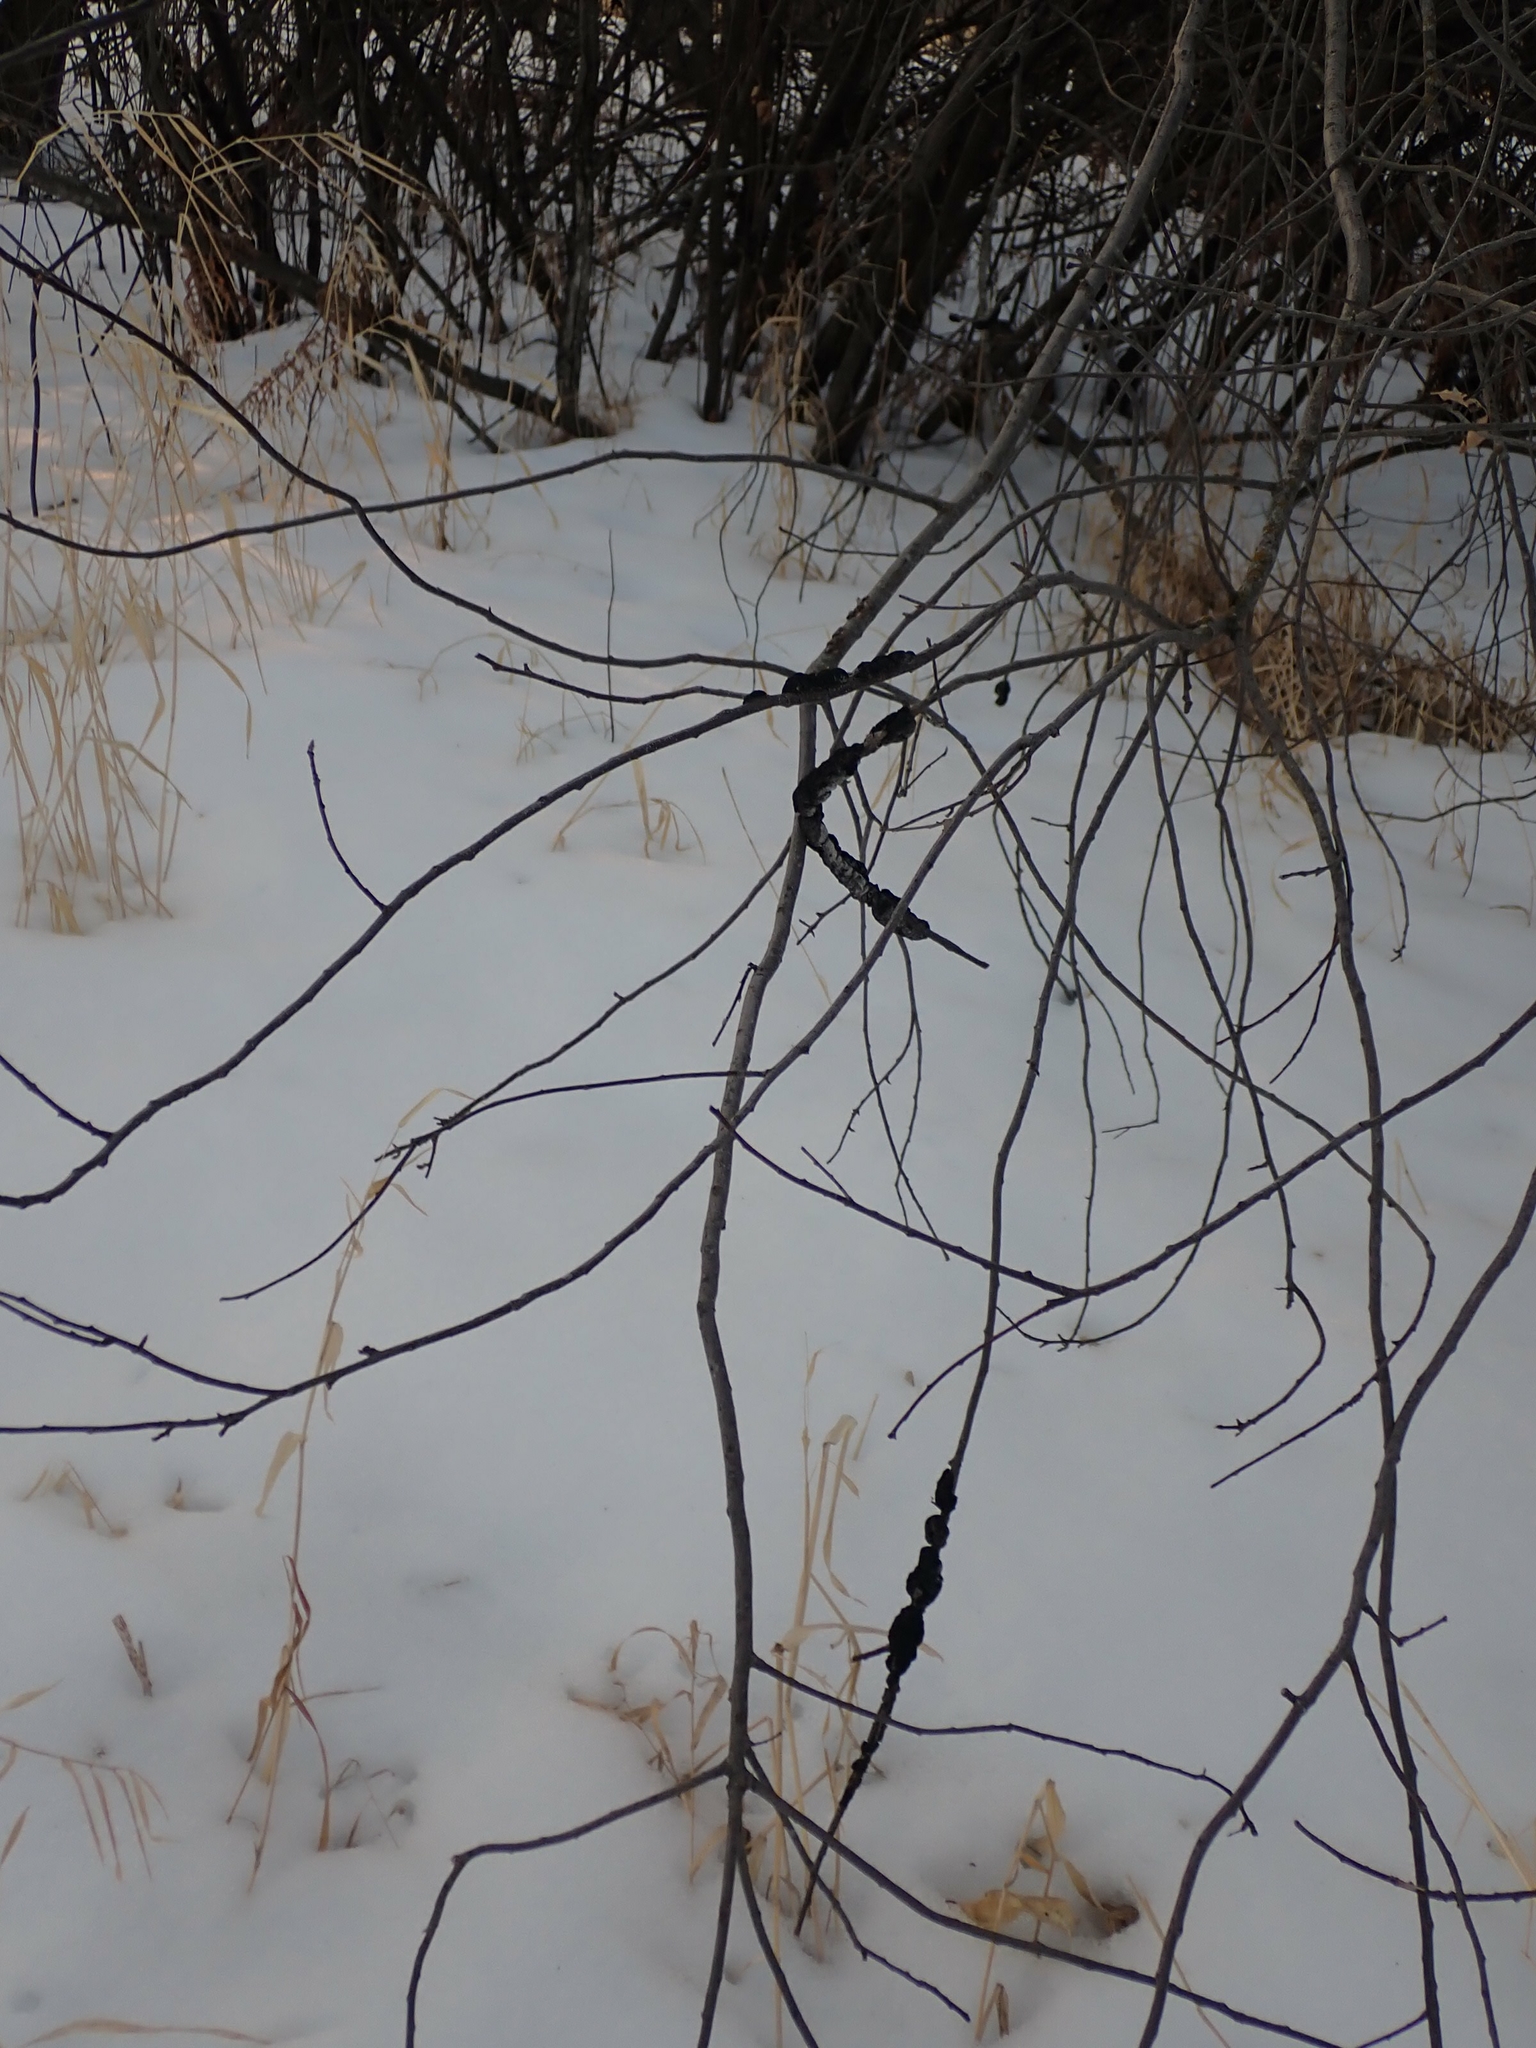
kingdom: Fungi
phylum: Ascomycota
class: Dothideomycetes
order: Venturiales
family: Venturiaceae
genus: Apiosporina
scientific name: Apiosporina morbosa
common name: Black knot
